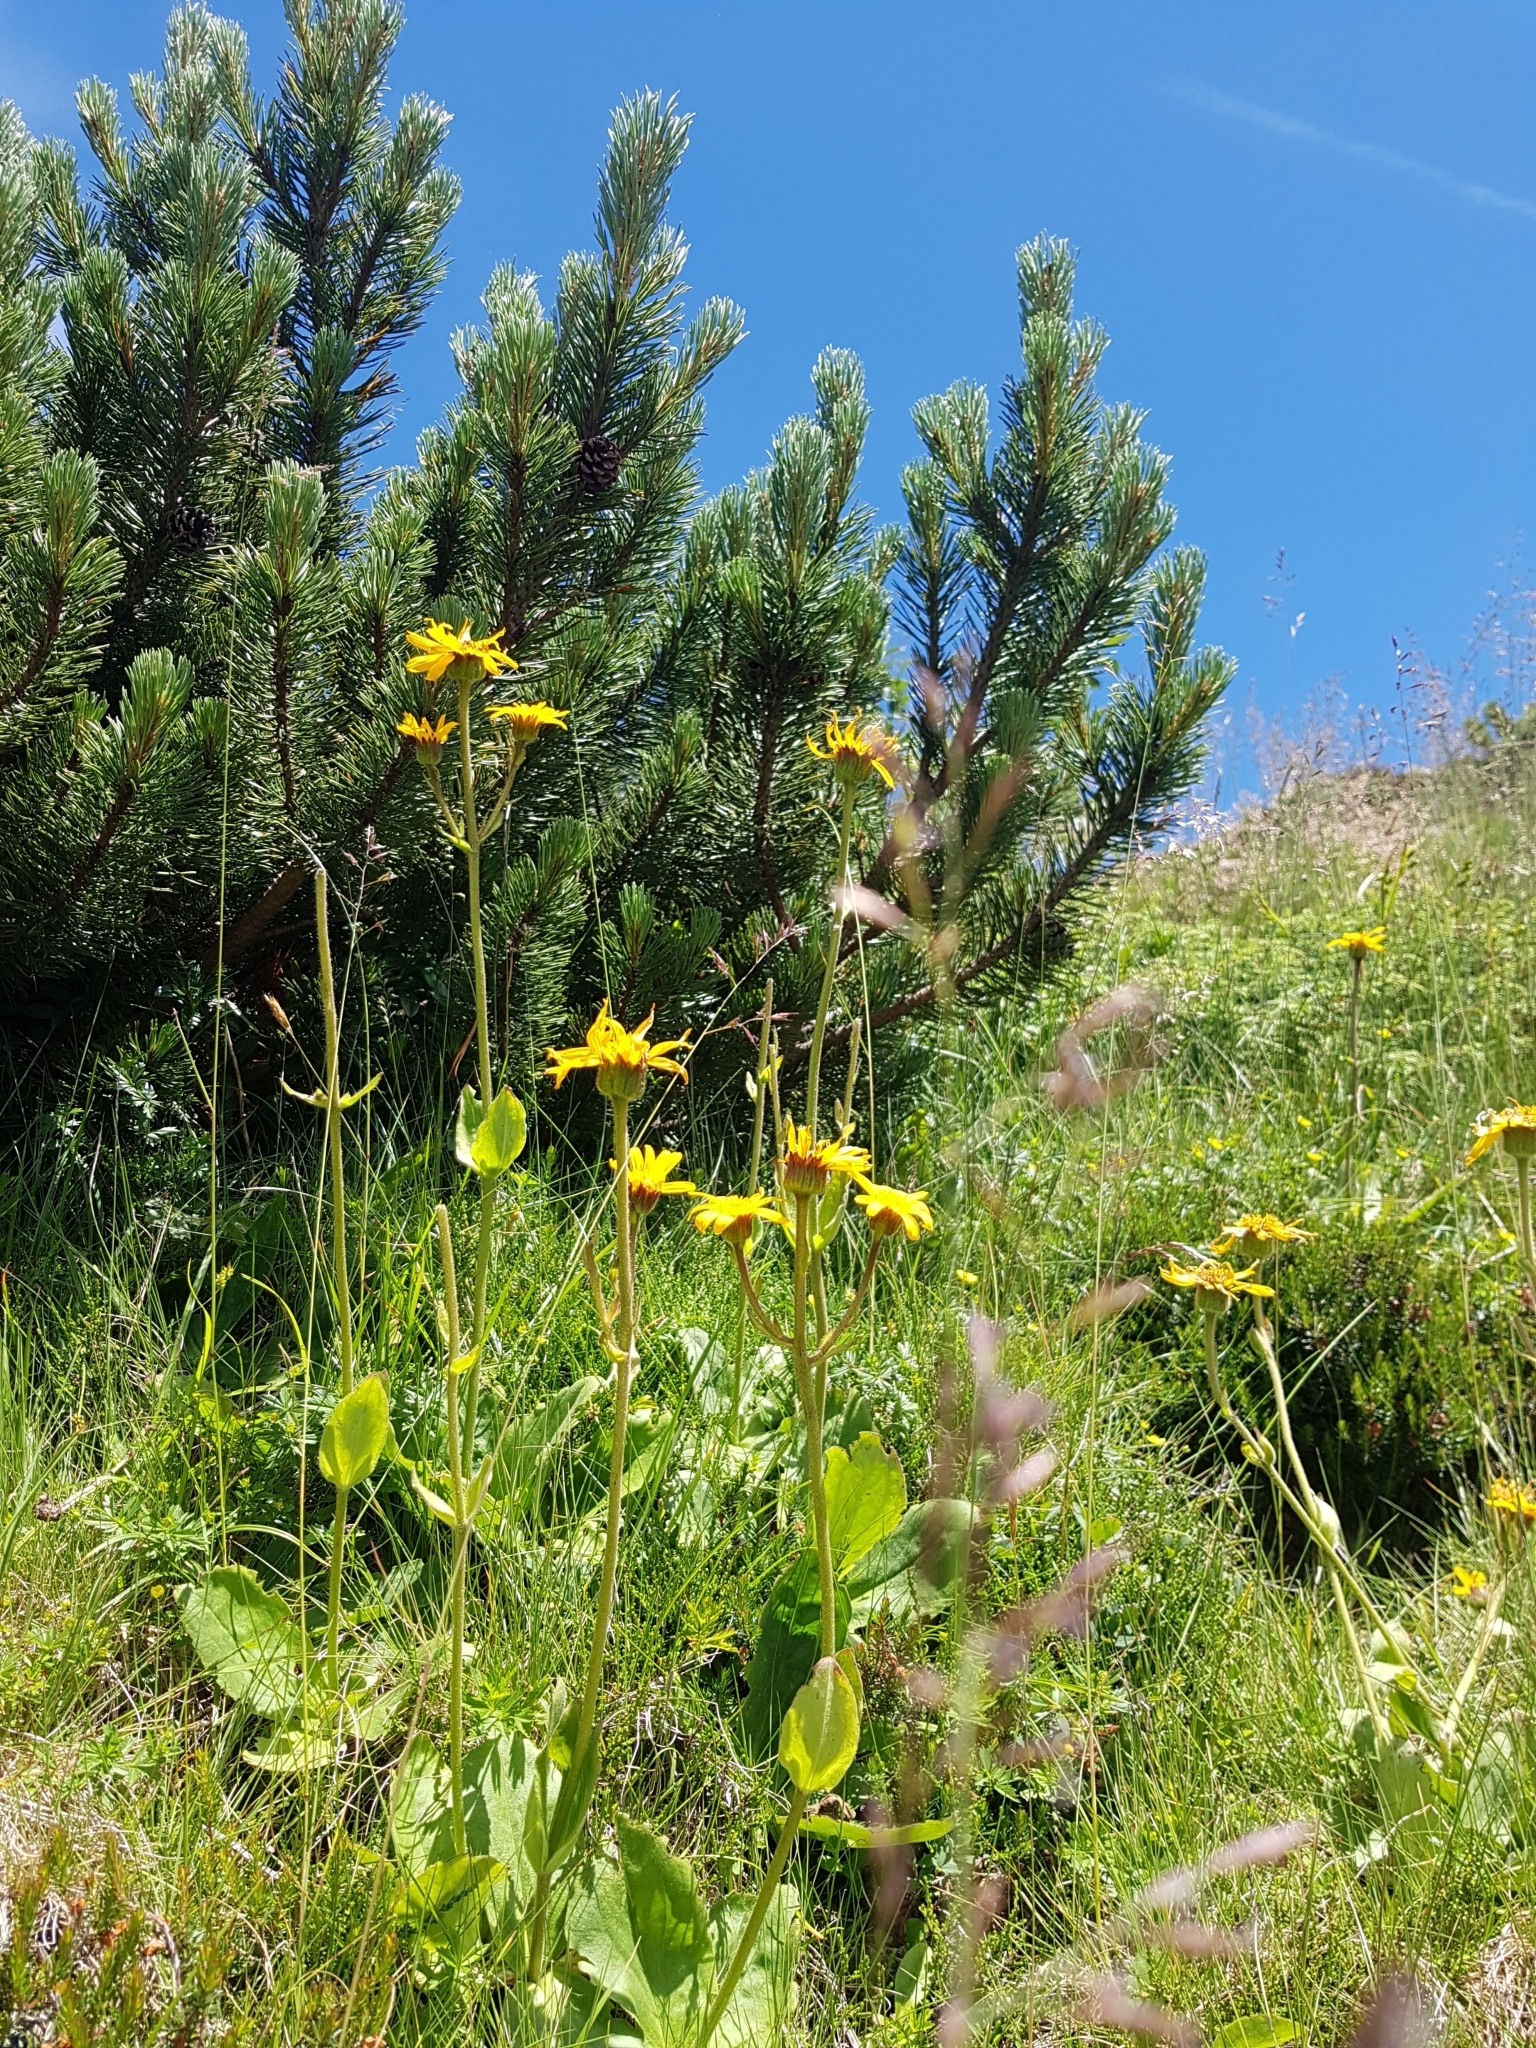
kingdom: Plantae
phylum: Tracheophyta
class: Magnoliopsida
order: Asterales
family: Asteraceae
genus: Arnica
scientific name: Arnica montana
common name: Leopard's bane
